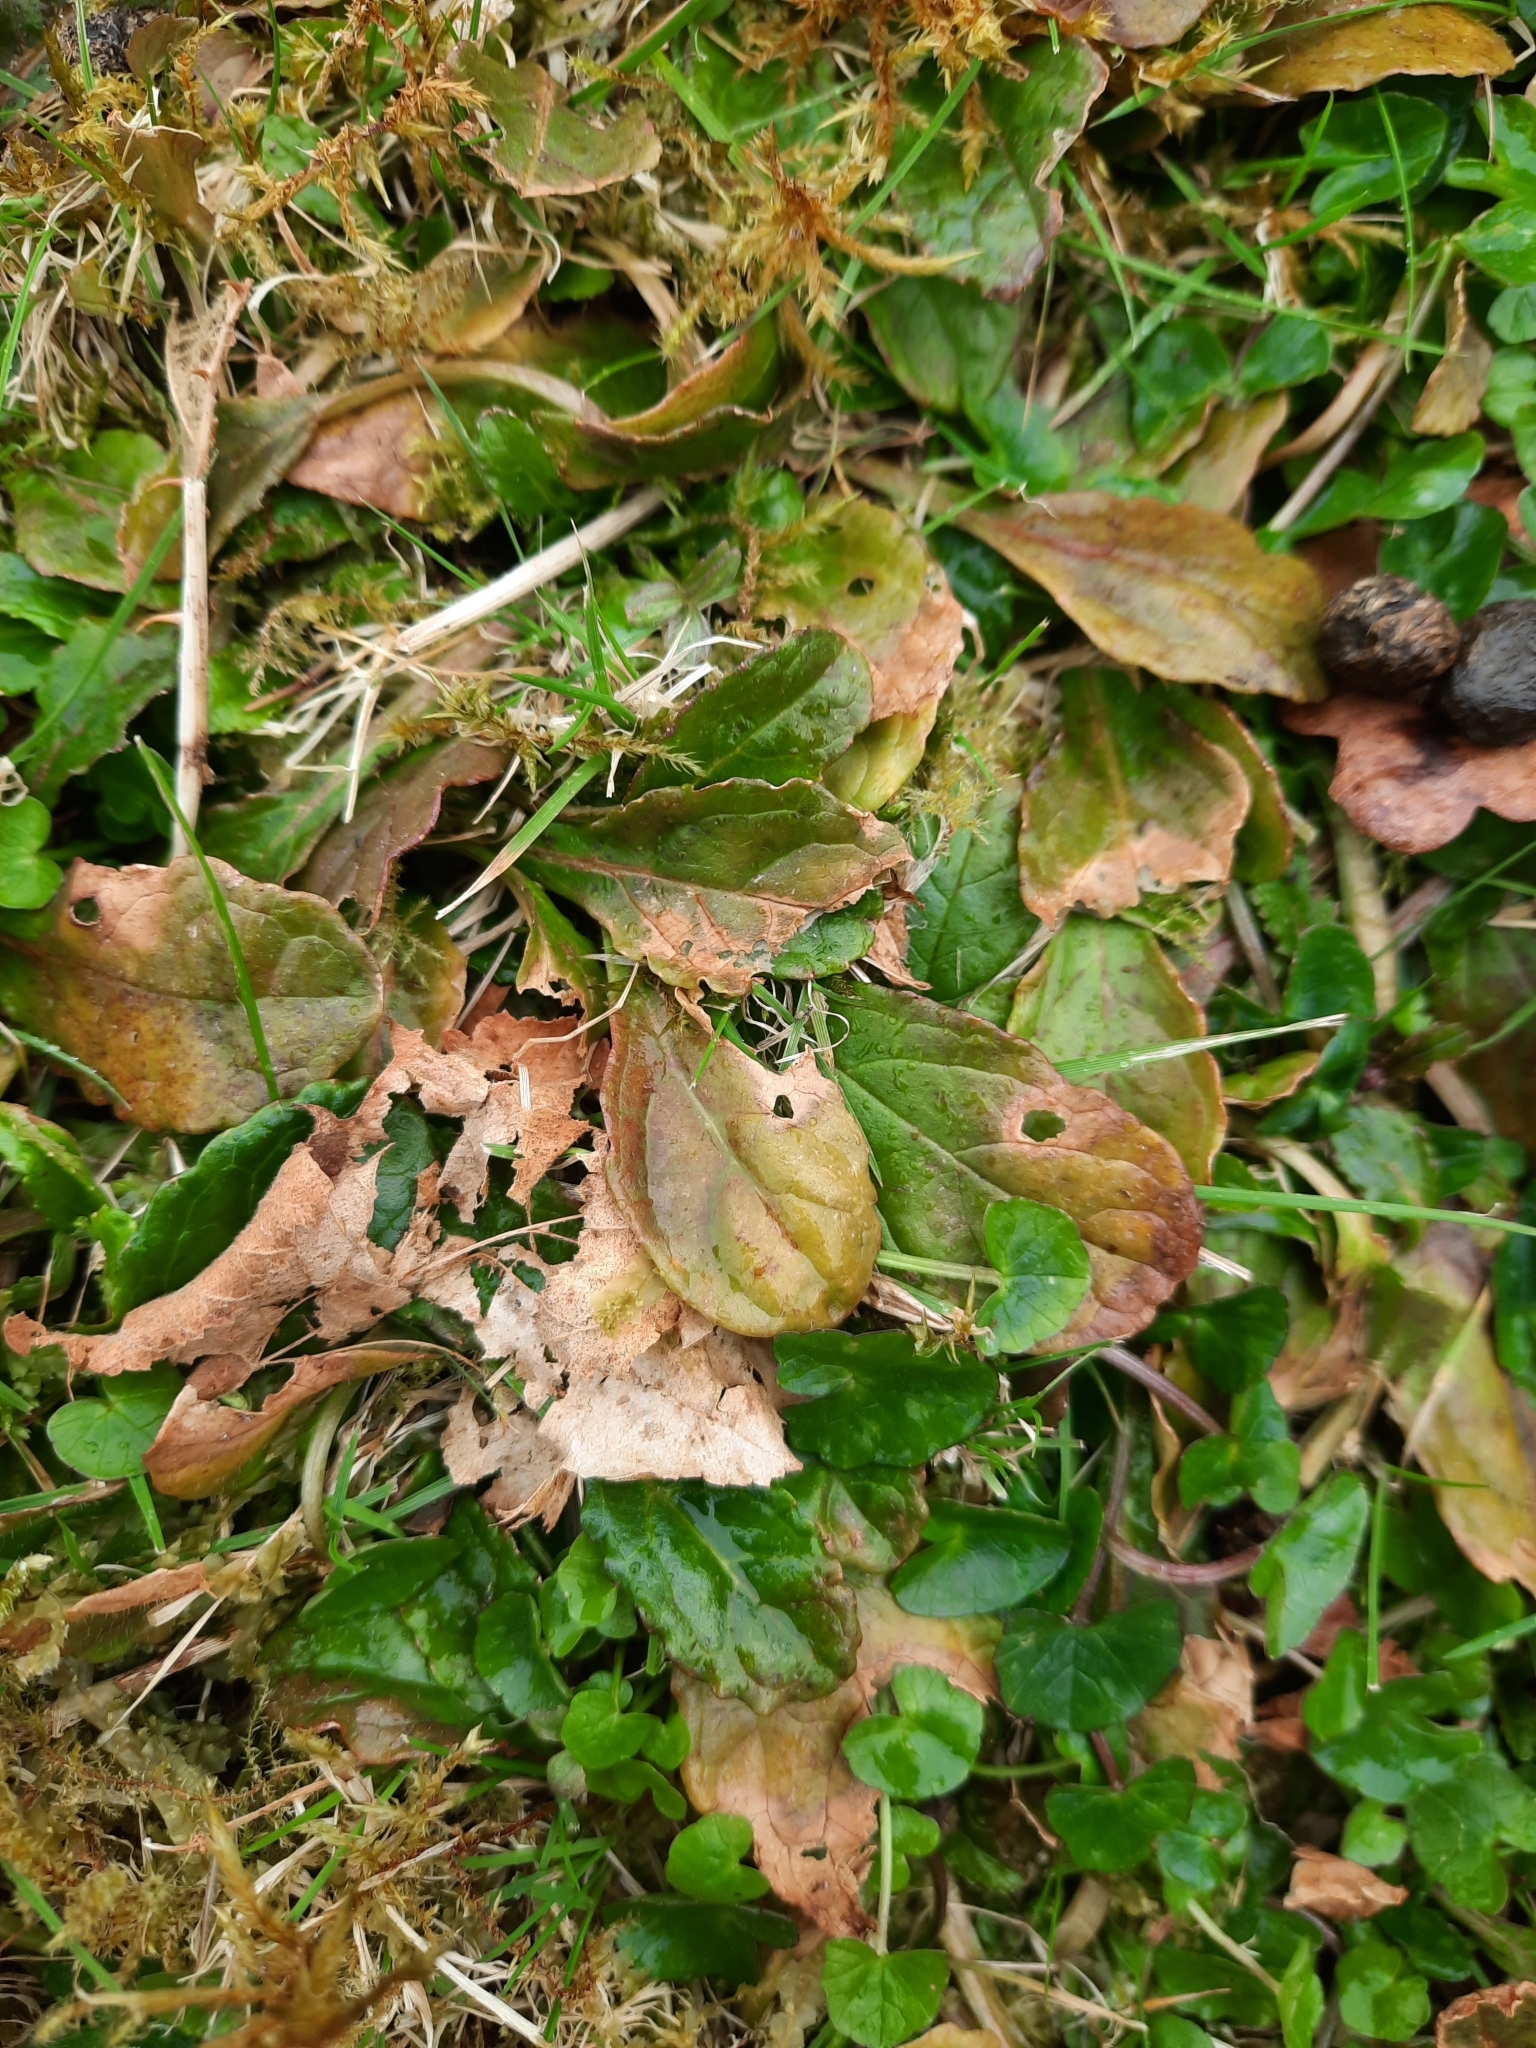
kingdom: Plantae
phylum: Tracheophyta
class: Magnoliopsida
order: Lamiales
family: Lamiaceae
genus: Ajuga
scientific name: Ajuga reptans
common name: Bugle
